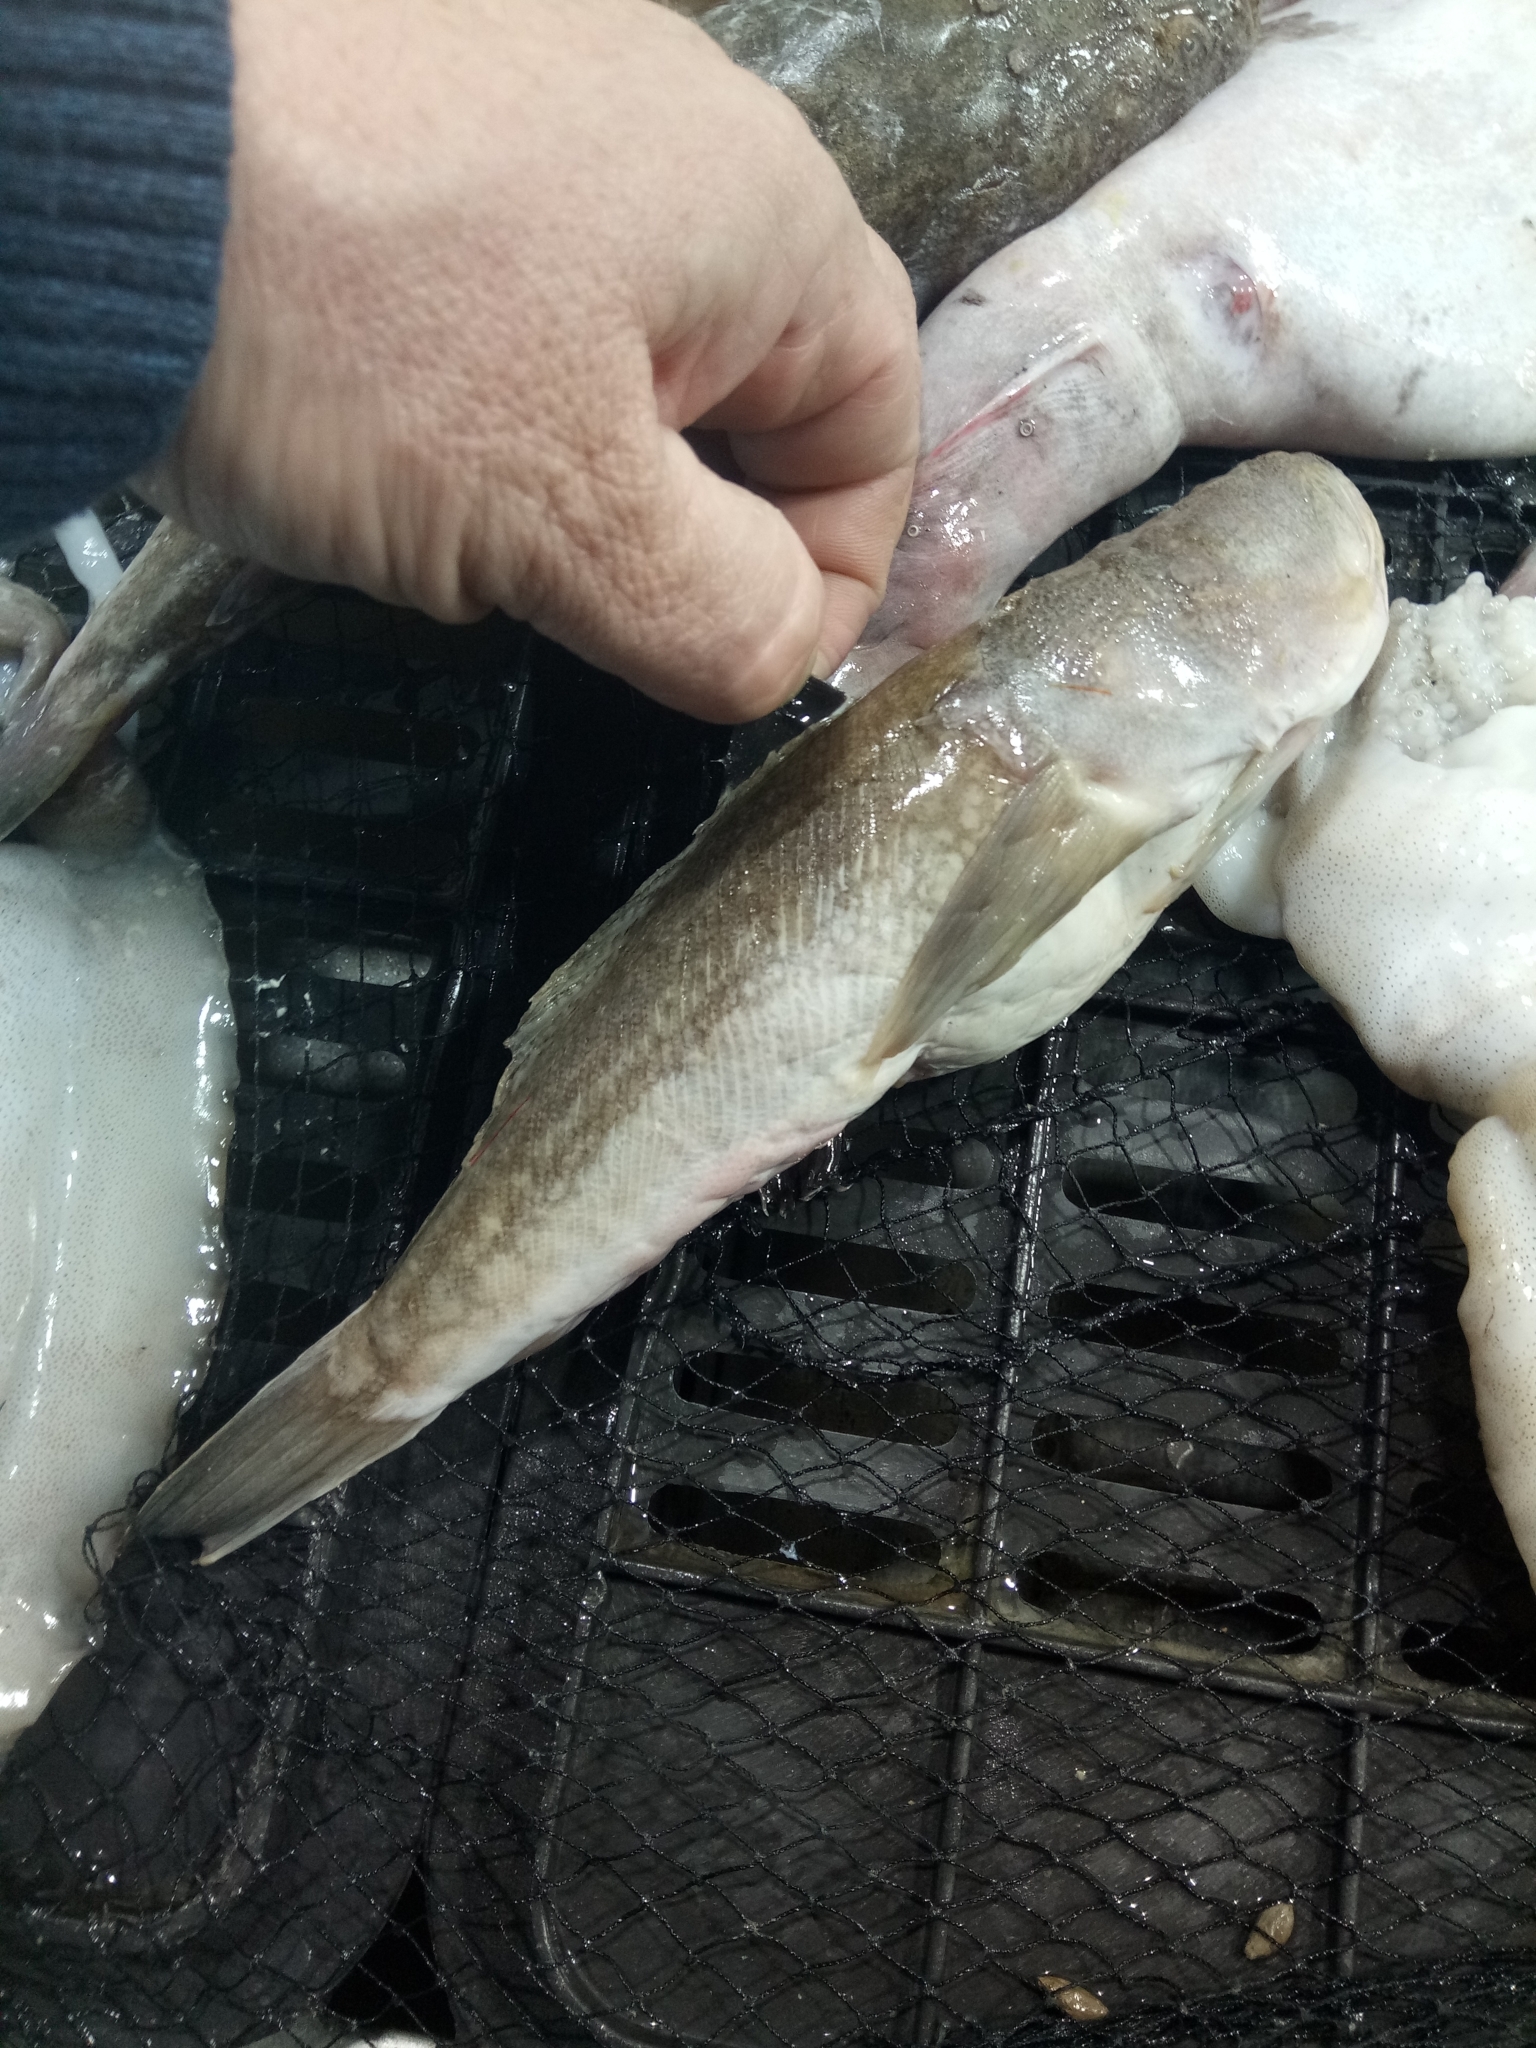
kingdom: Animalia
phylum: Chordata
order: Perciformes
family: Uranoscopidae
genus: Uranoscopus
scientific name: Uranoscopus scaber
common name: Stargazer
